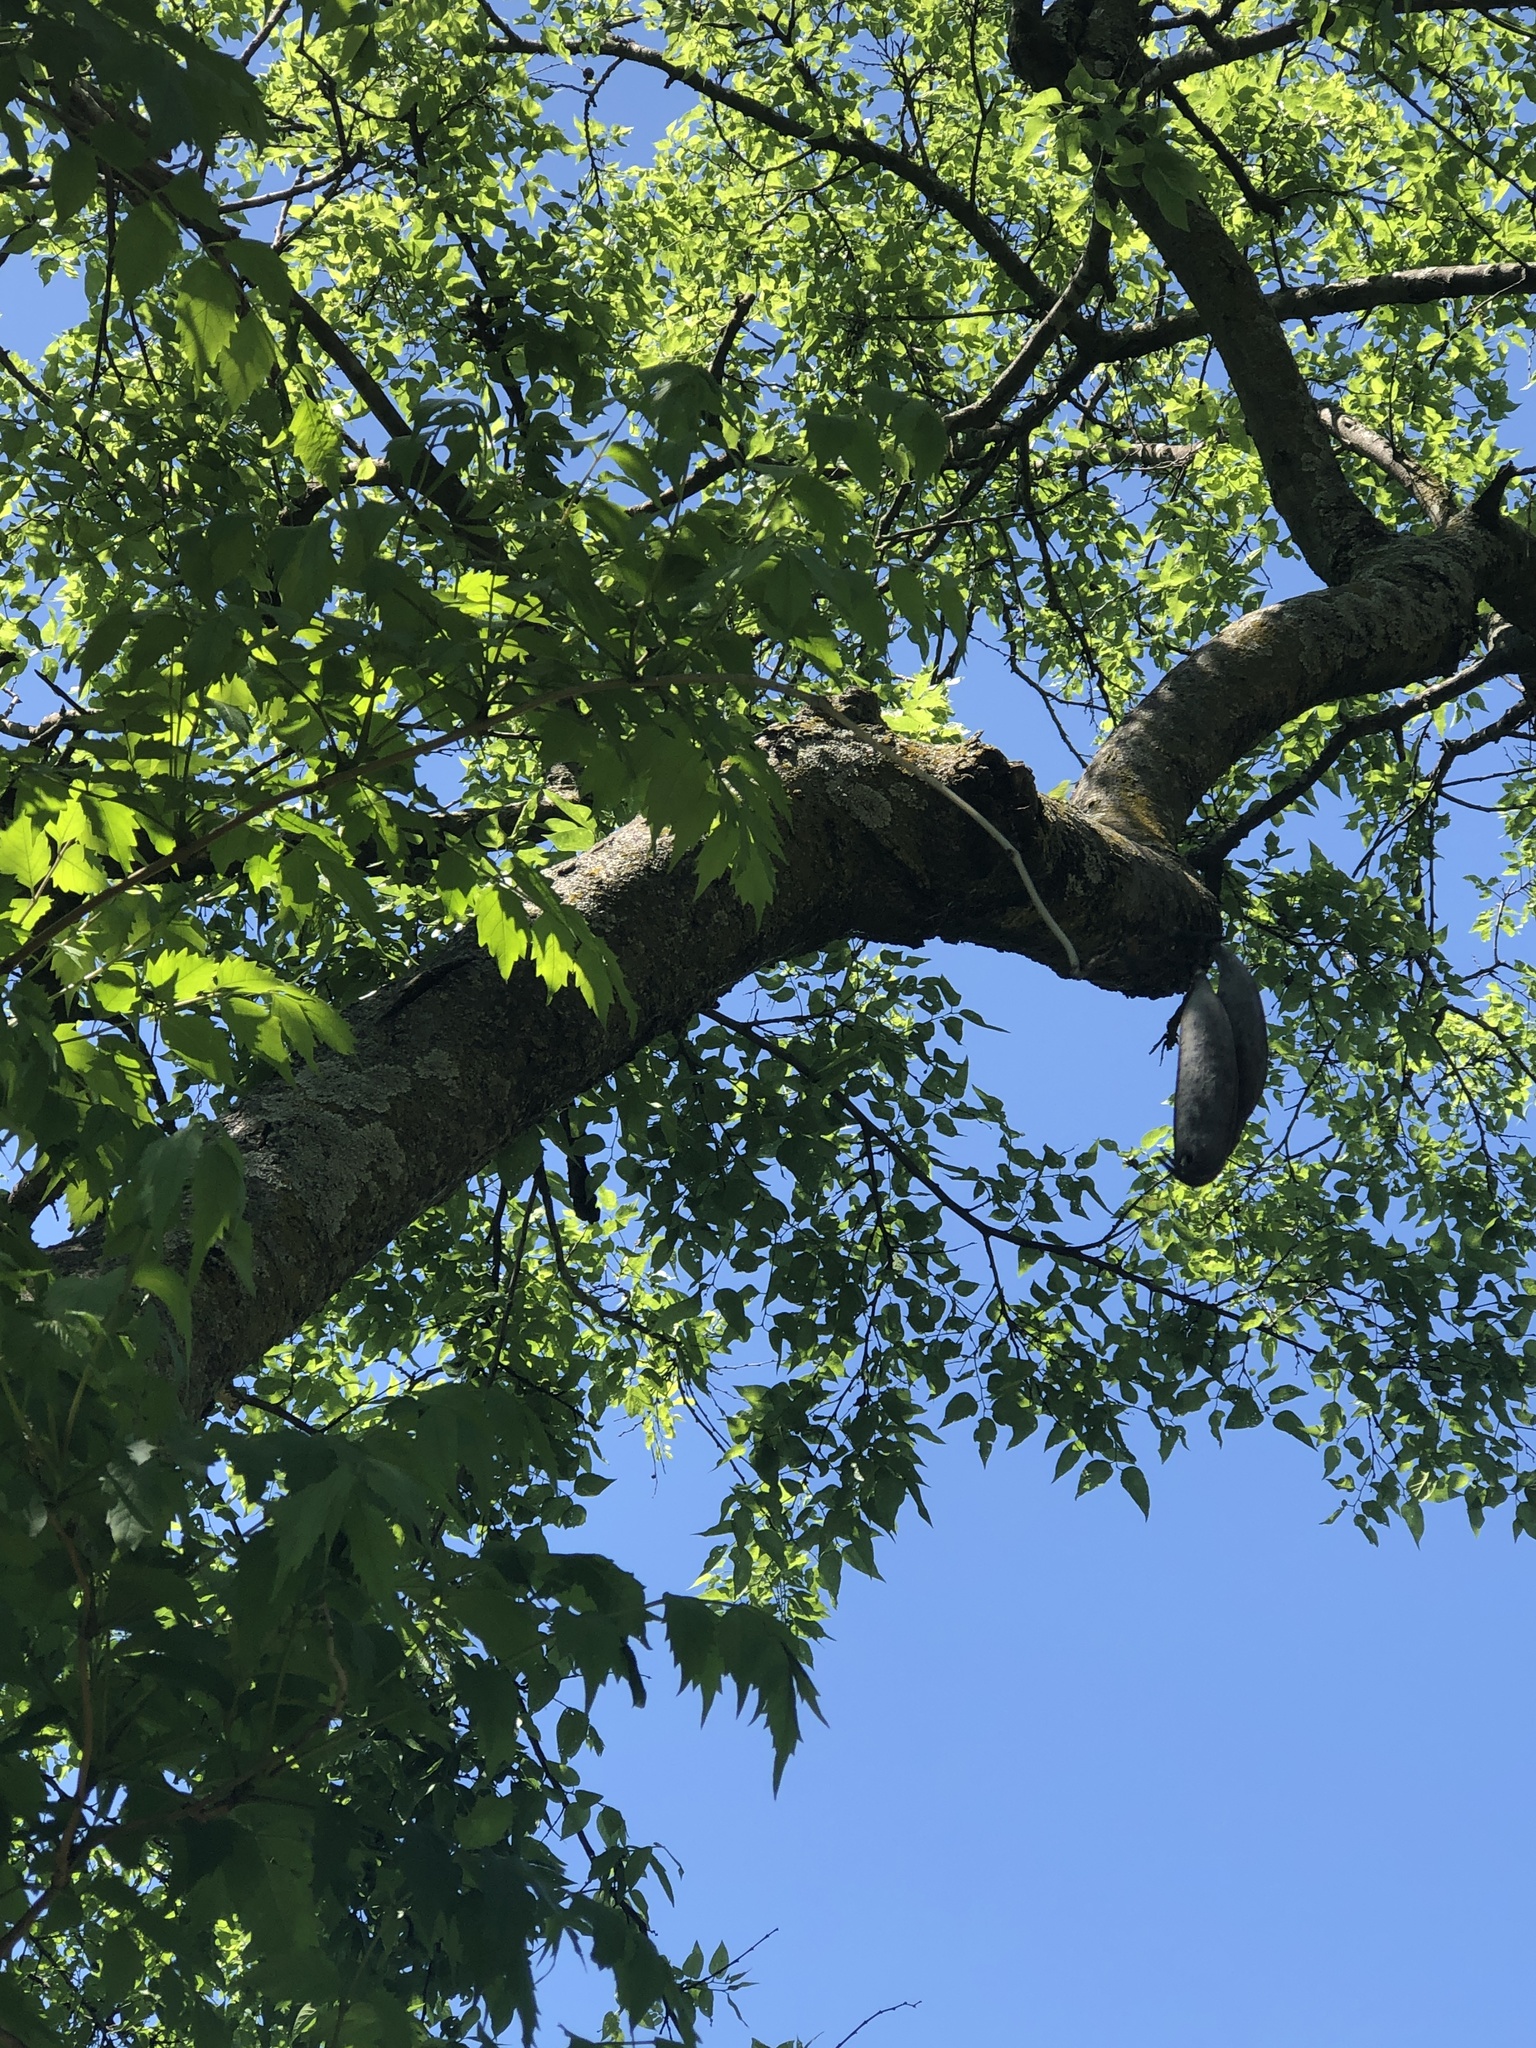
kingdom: Plantae
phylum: Tracheophyta
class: Magnoliopsida
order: Lamiales
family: Bignoniaceae
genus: Campsis
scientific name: Campsis radicans
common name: Trumpet-creeper
